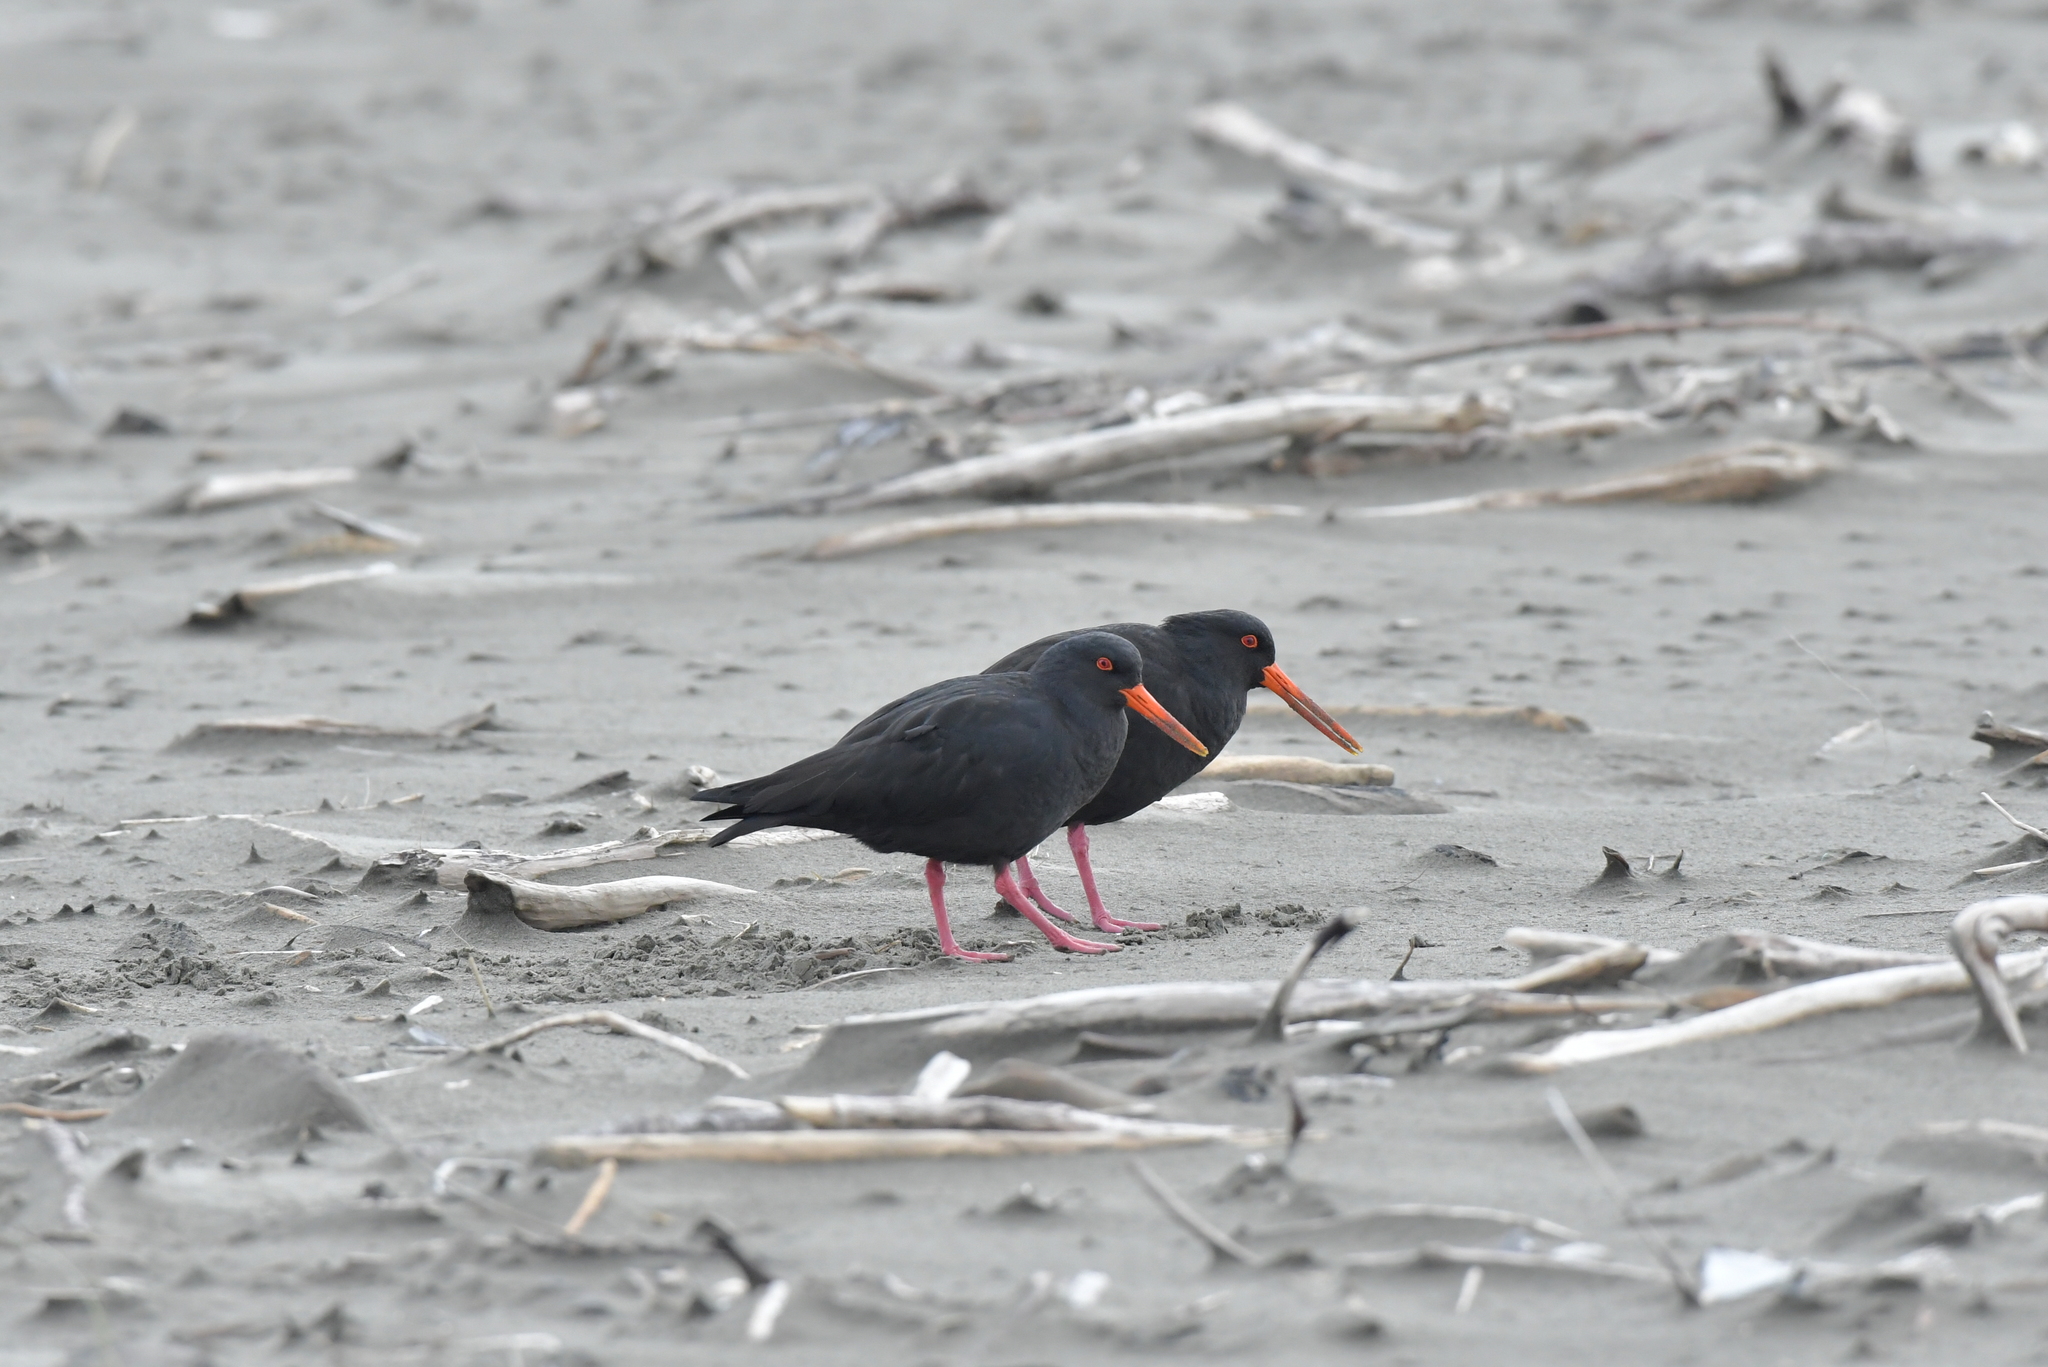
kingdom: Animalia
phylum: Chordata
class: Aves
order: Charadriiformes
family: Haematopodidae
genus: Haematopus
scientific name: Haematopus unicolor
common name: Variable oystercatcher
